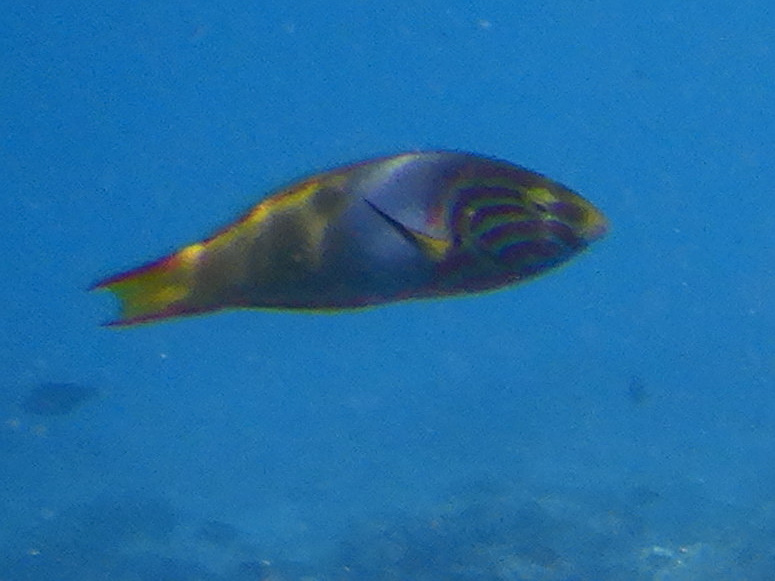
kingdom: Animalia
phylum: Chordata
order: Perciformes
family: Labridae
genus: Thalassoma
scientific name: Thalassoma lutescens
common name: Green moon wrasse
